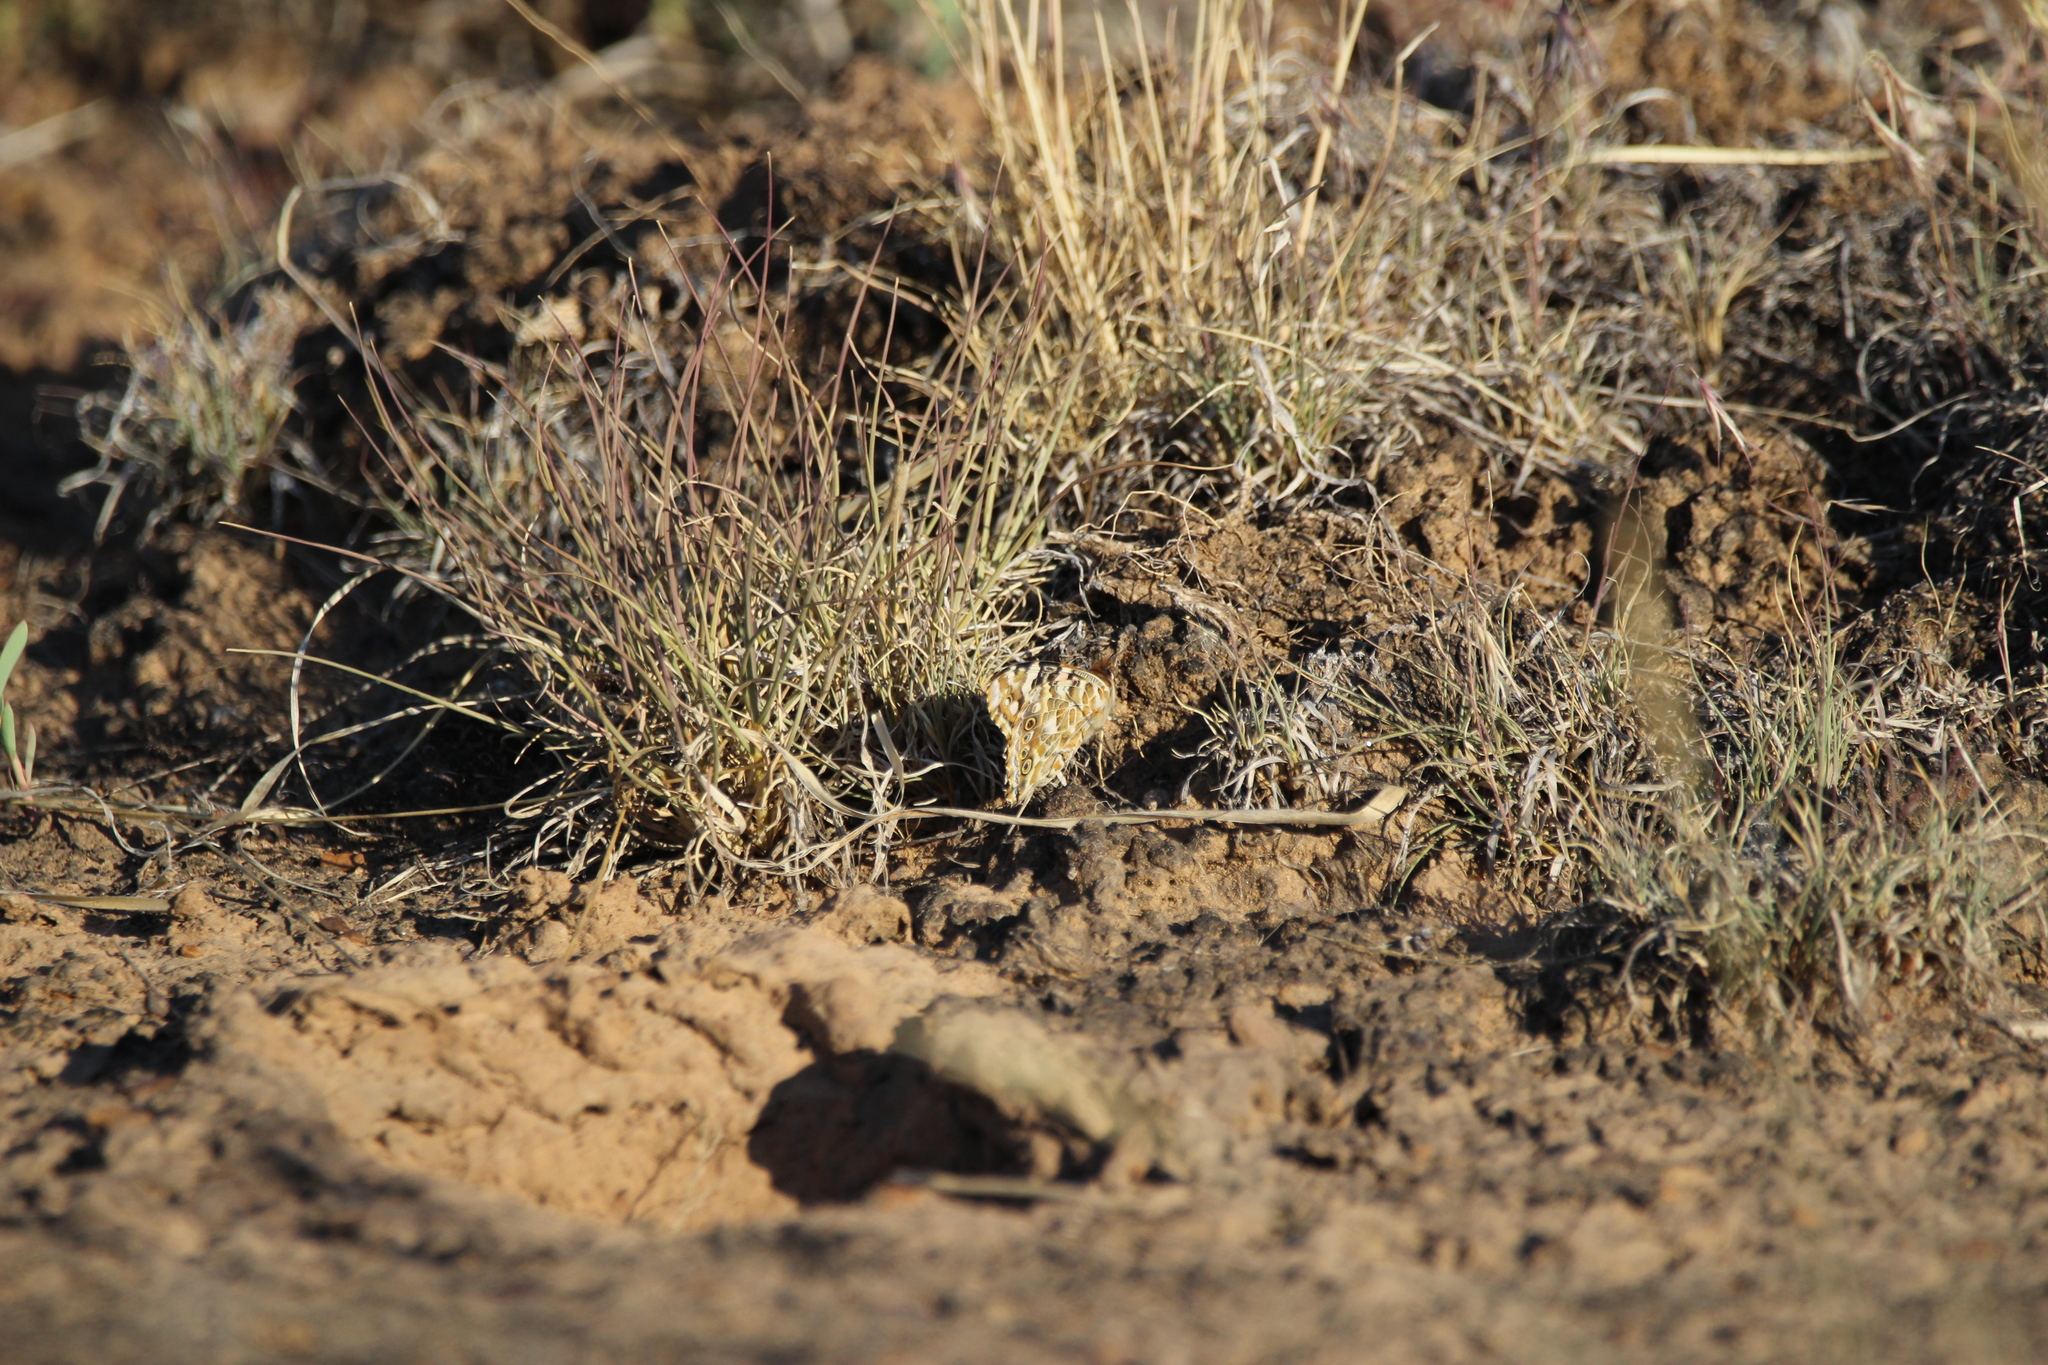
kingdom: Animalia
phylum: Arthropoda
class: Insecta
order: Lepidoptera
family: Nymphalidae
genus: Vanessa
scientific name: Vanessa cardui
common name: Painted lady
